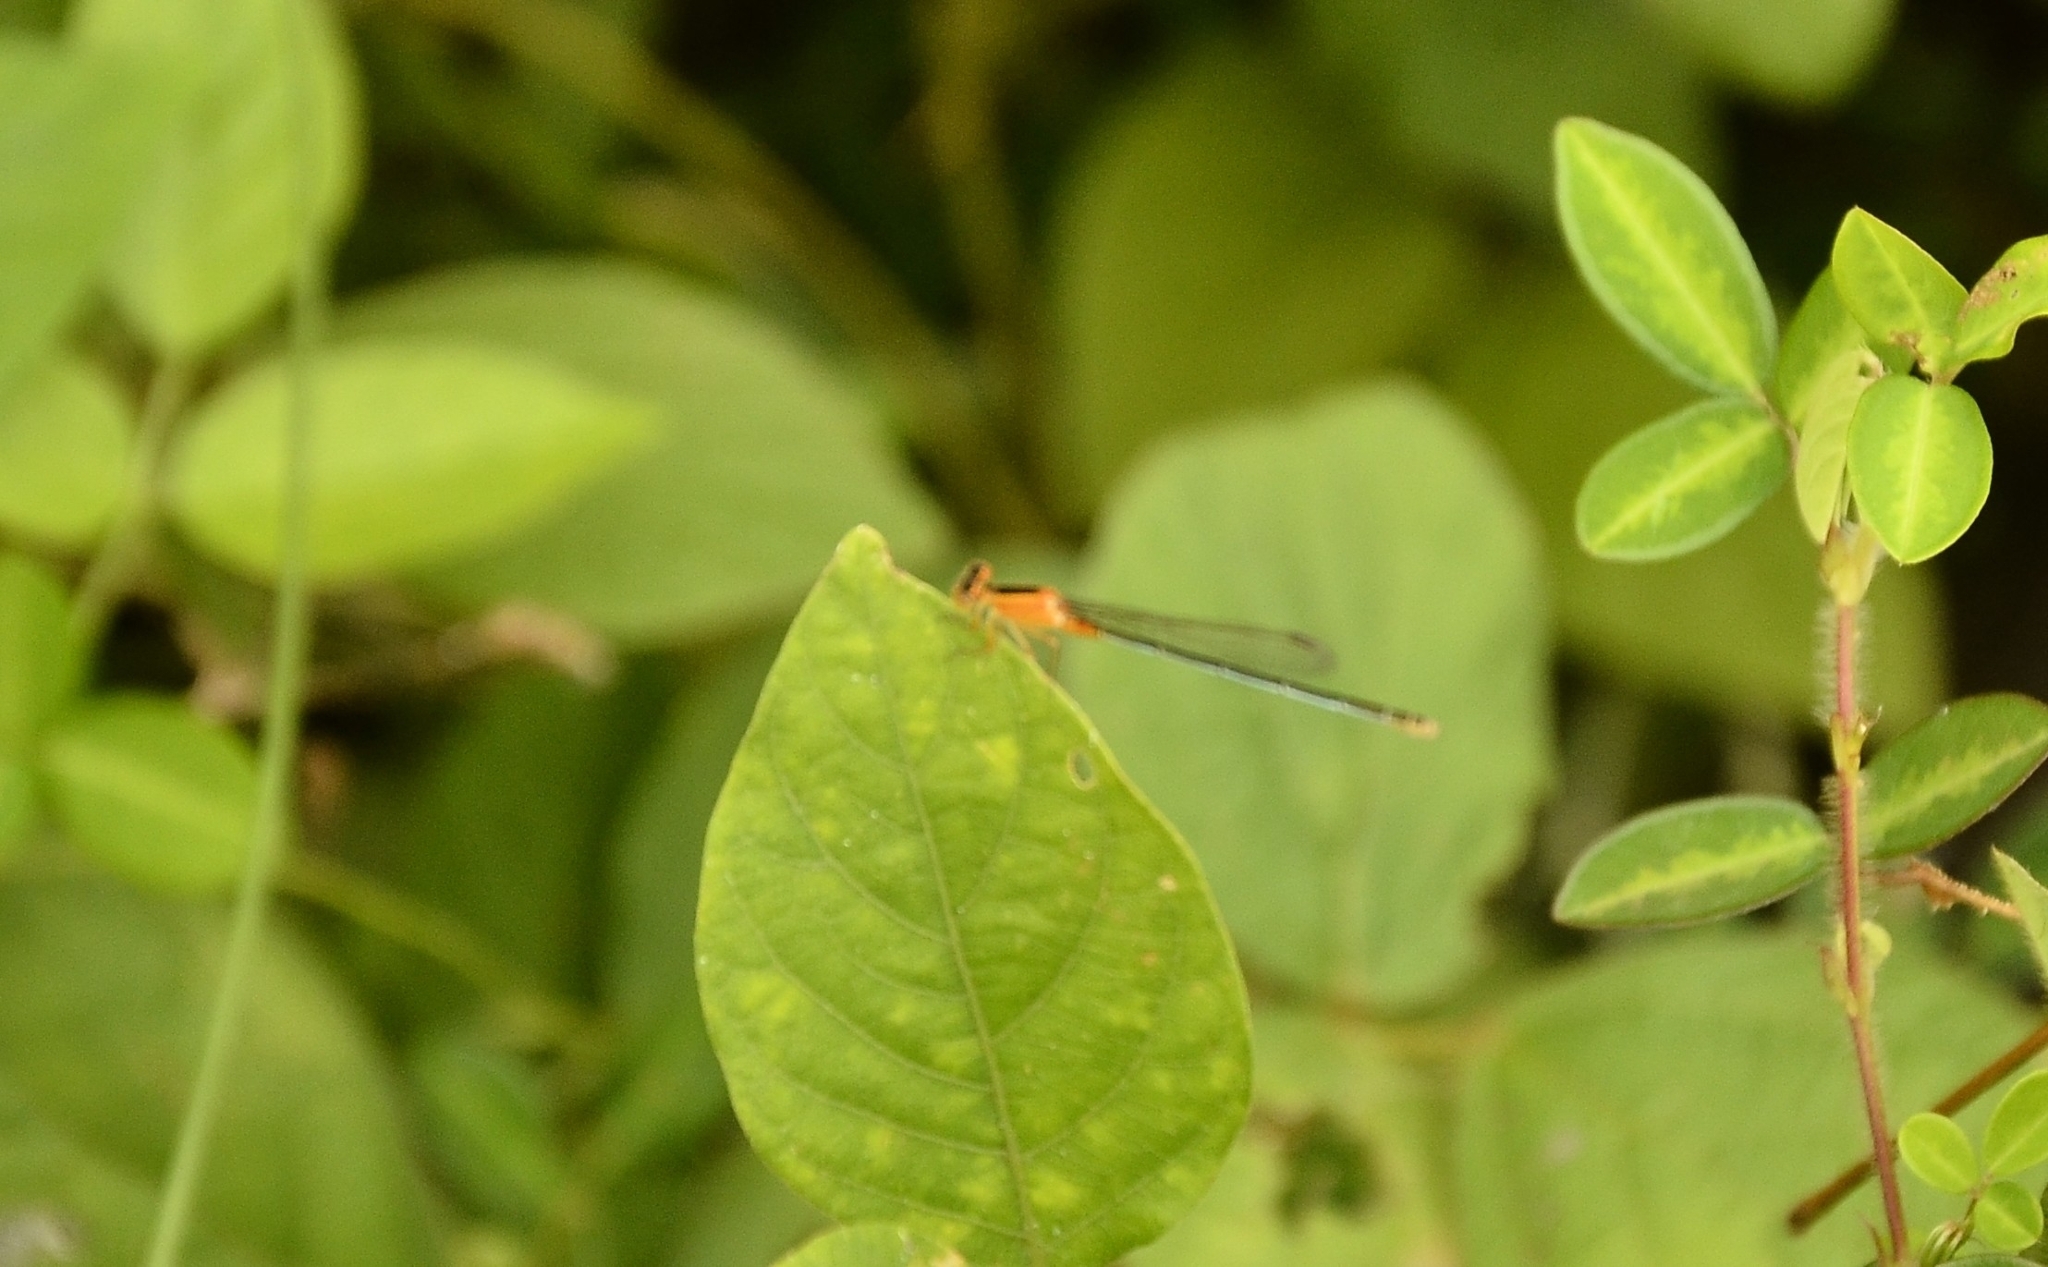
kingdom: Animalia
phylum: Arthropoda
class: Insecta
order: Odonata
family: Coenagrionidae
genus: Ischnura
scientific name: Ischnura senegalensis
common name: Tropical bluetail
